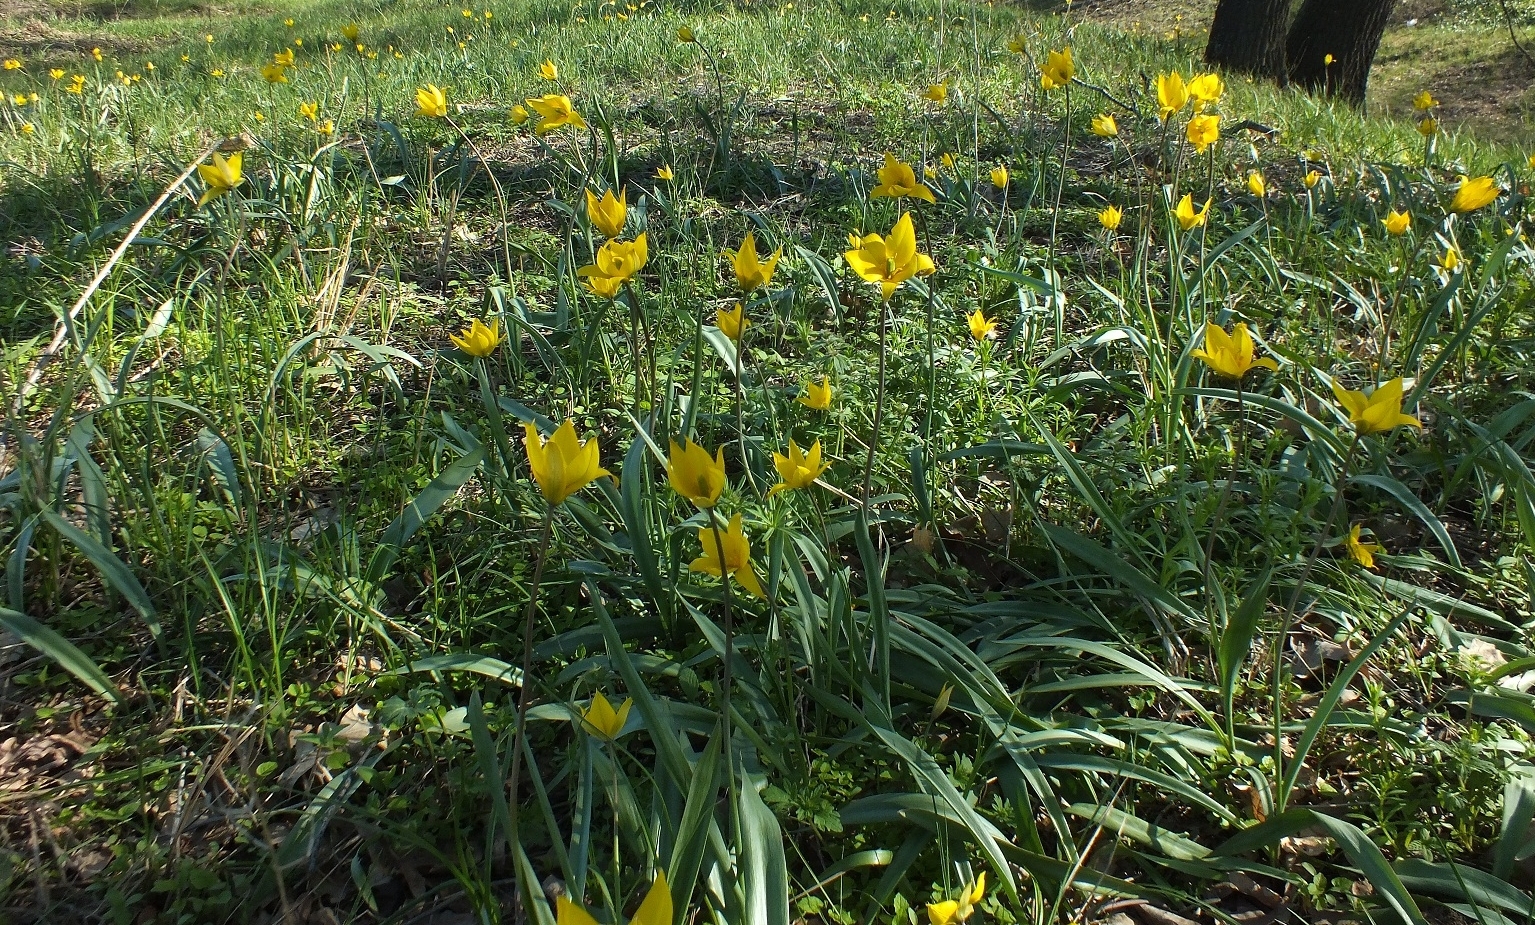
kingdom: Plantae
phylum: Tracheophyta
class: Liliopsida
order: Liliales
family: Liliaceae
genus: Tulipa
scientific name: Tulipa sylvestris
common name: Wild tulip
